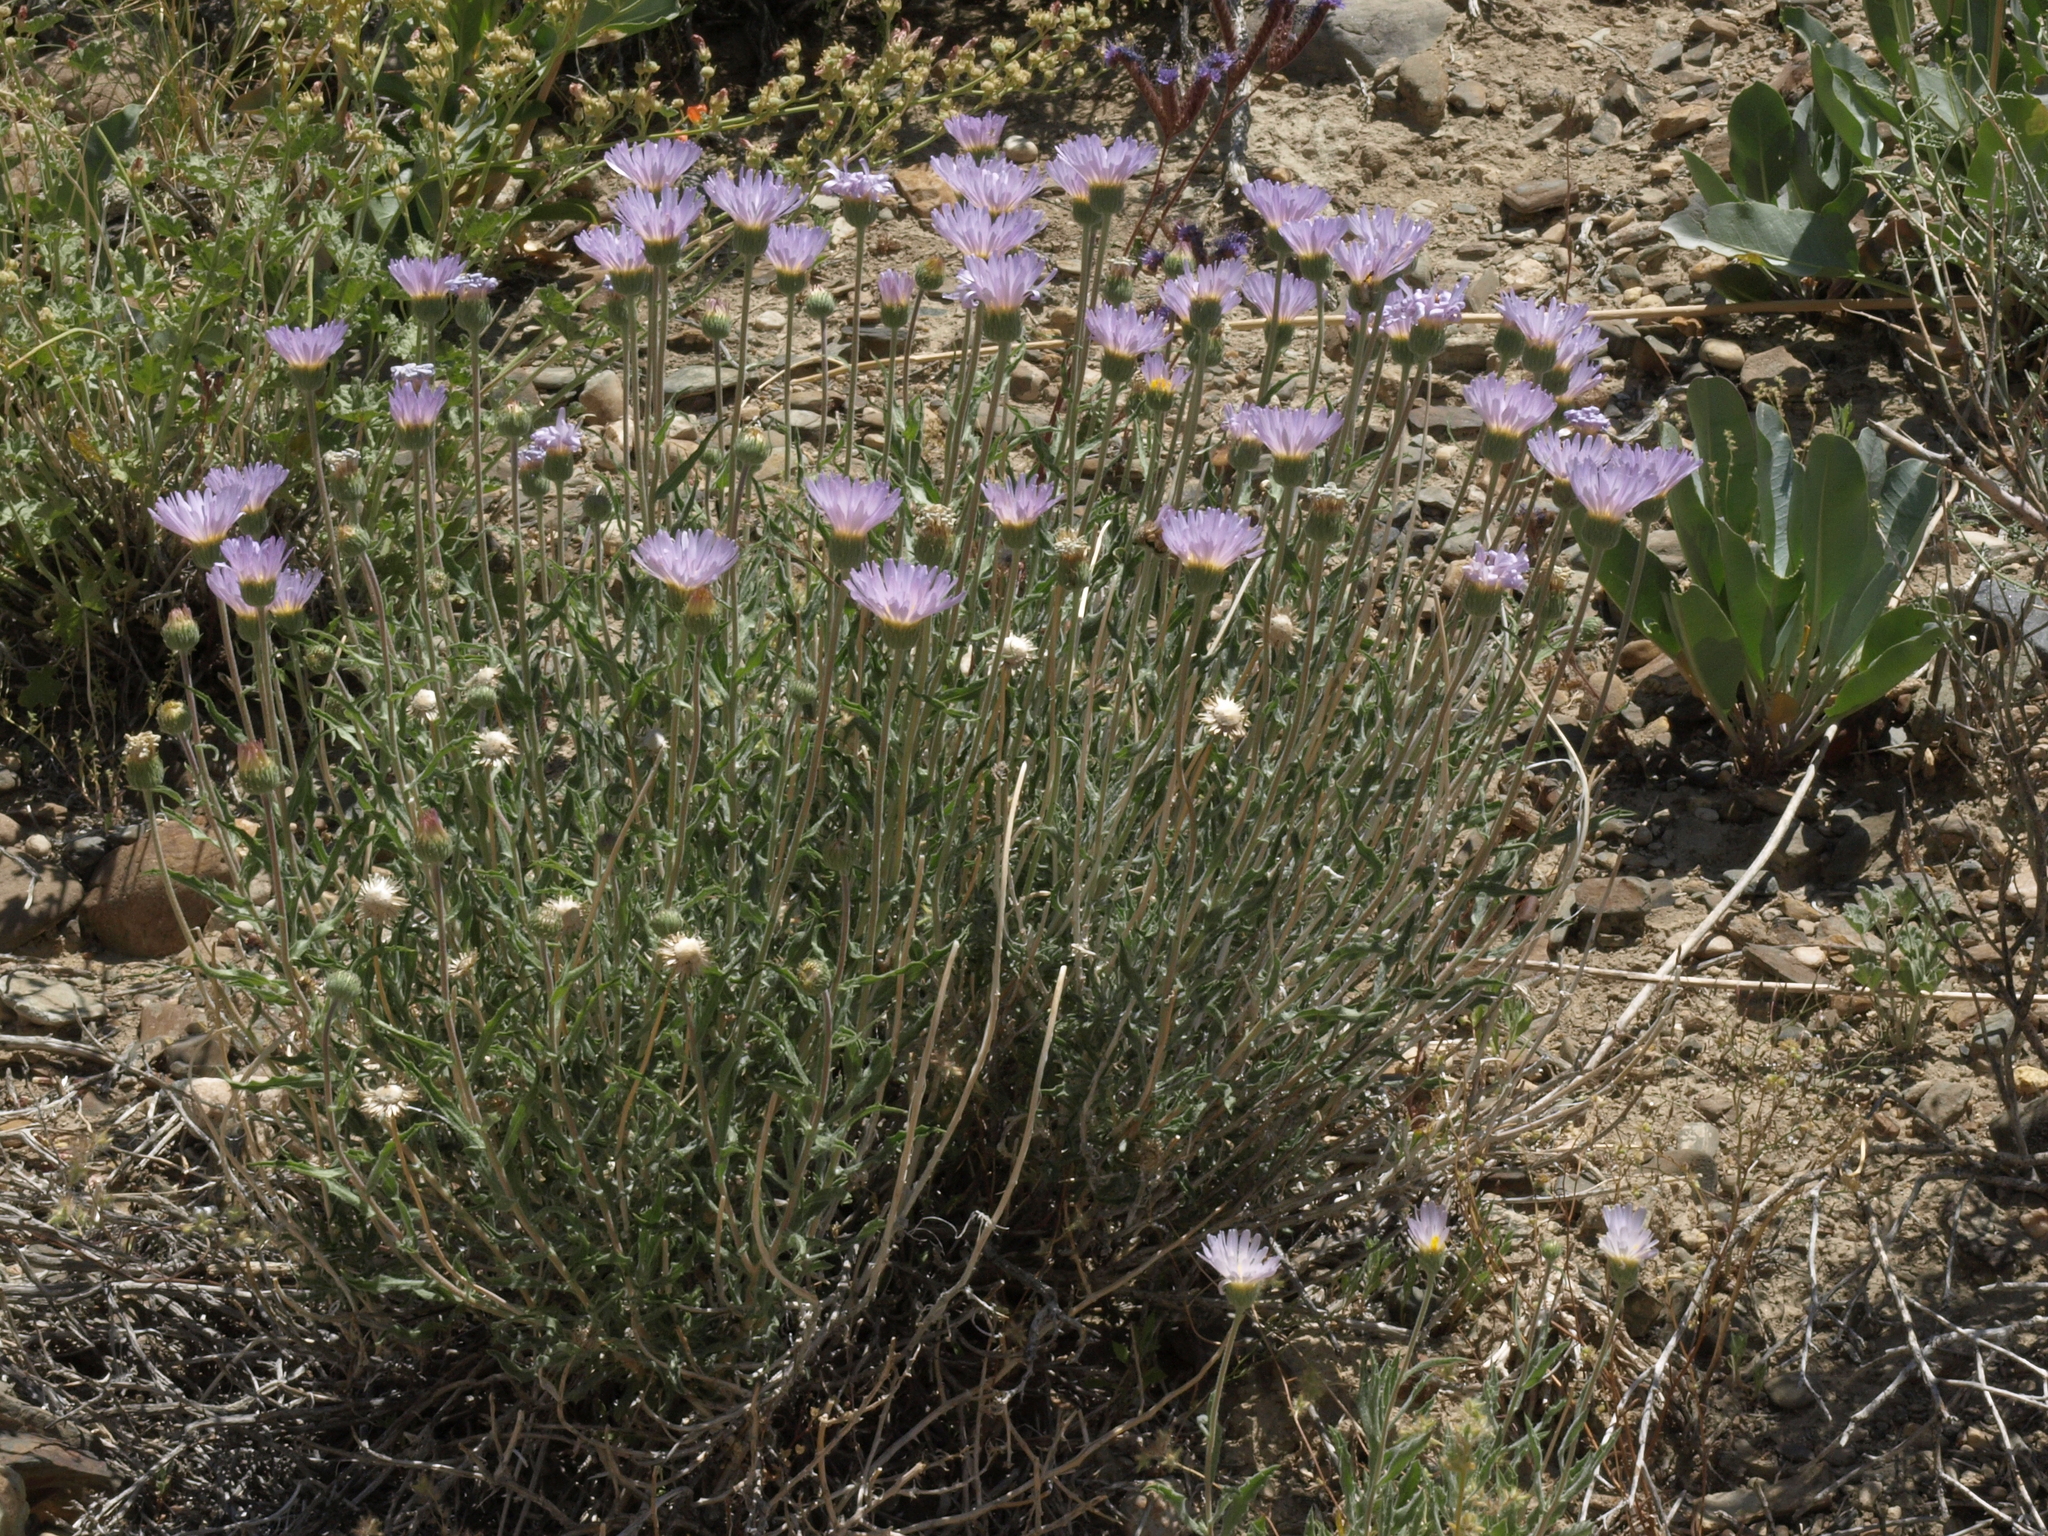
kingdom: Plantae
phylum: Tracheophyta
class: Magnoliopsida
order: Asterales
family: Asteraceae
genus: Xylorhiza
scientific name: Xylorhiza tortifolia
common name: Hurt-leaf woody-aster
